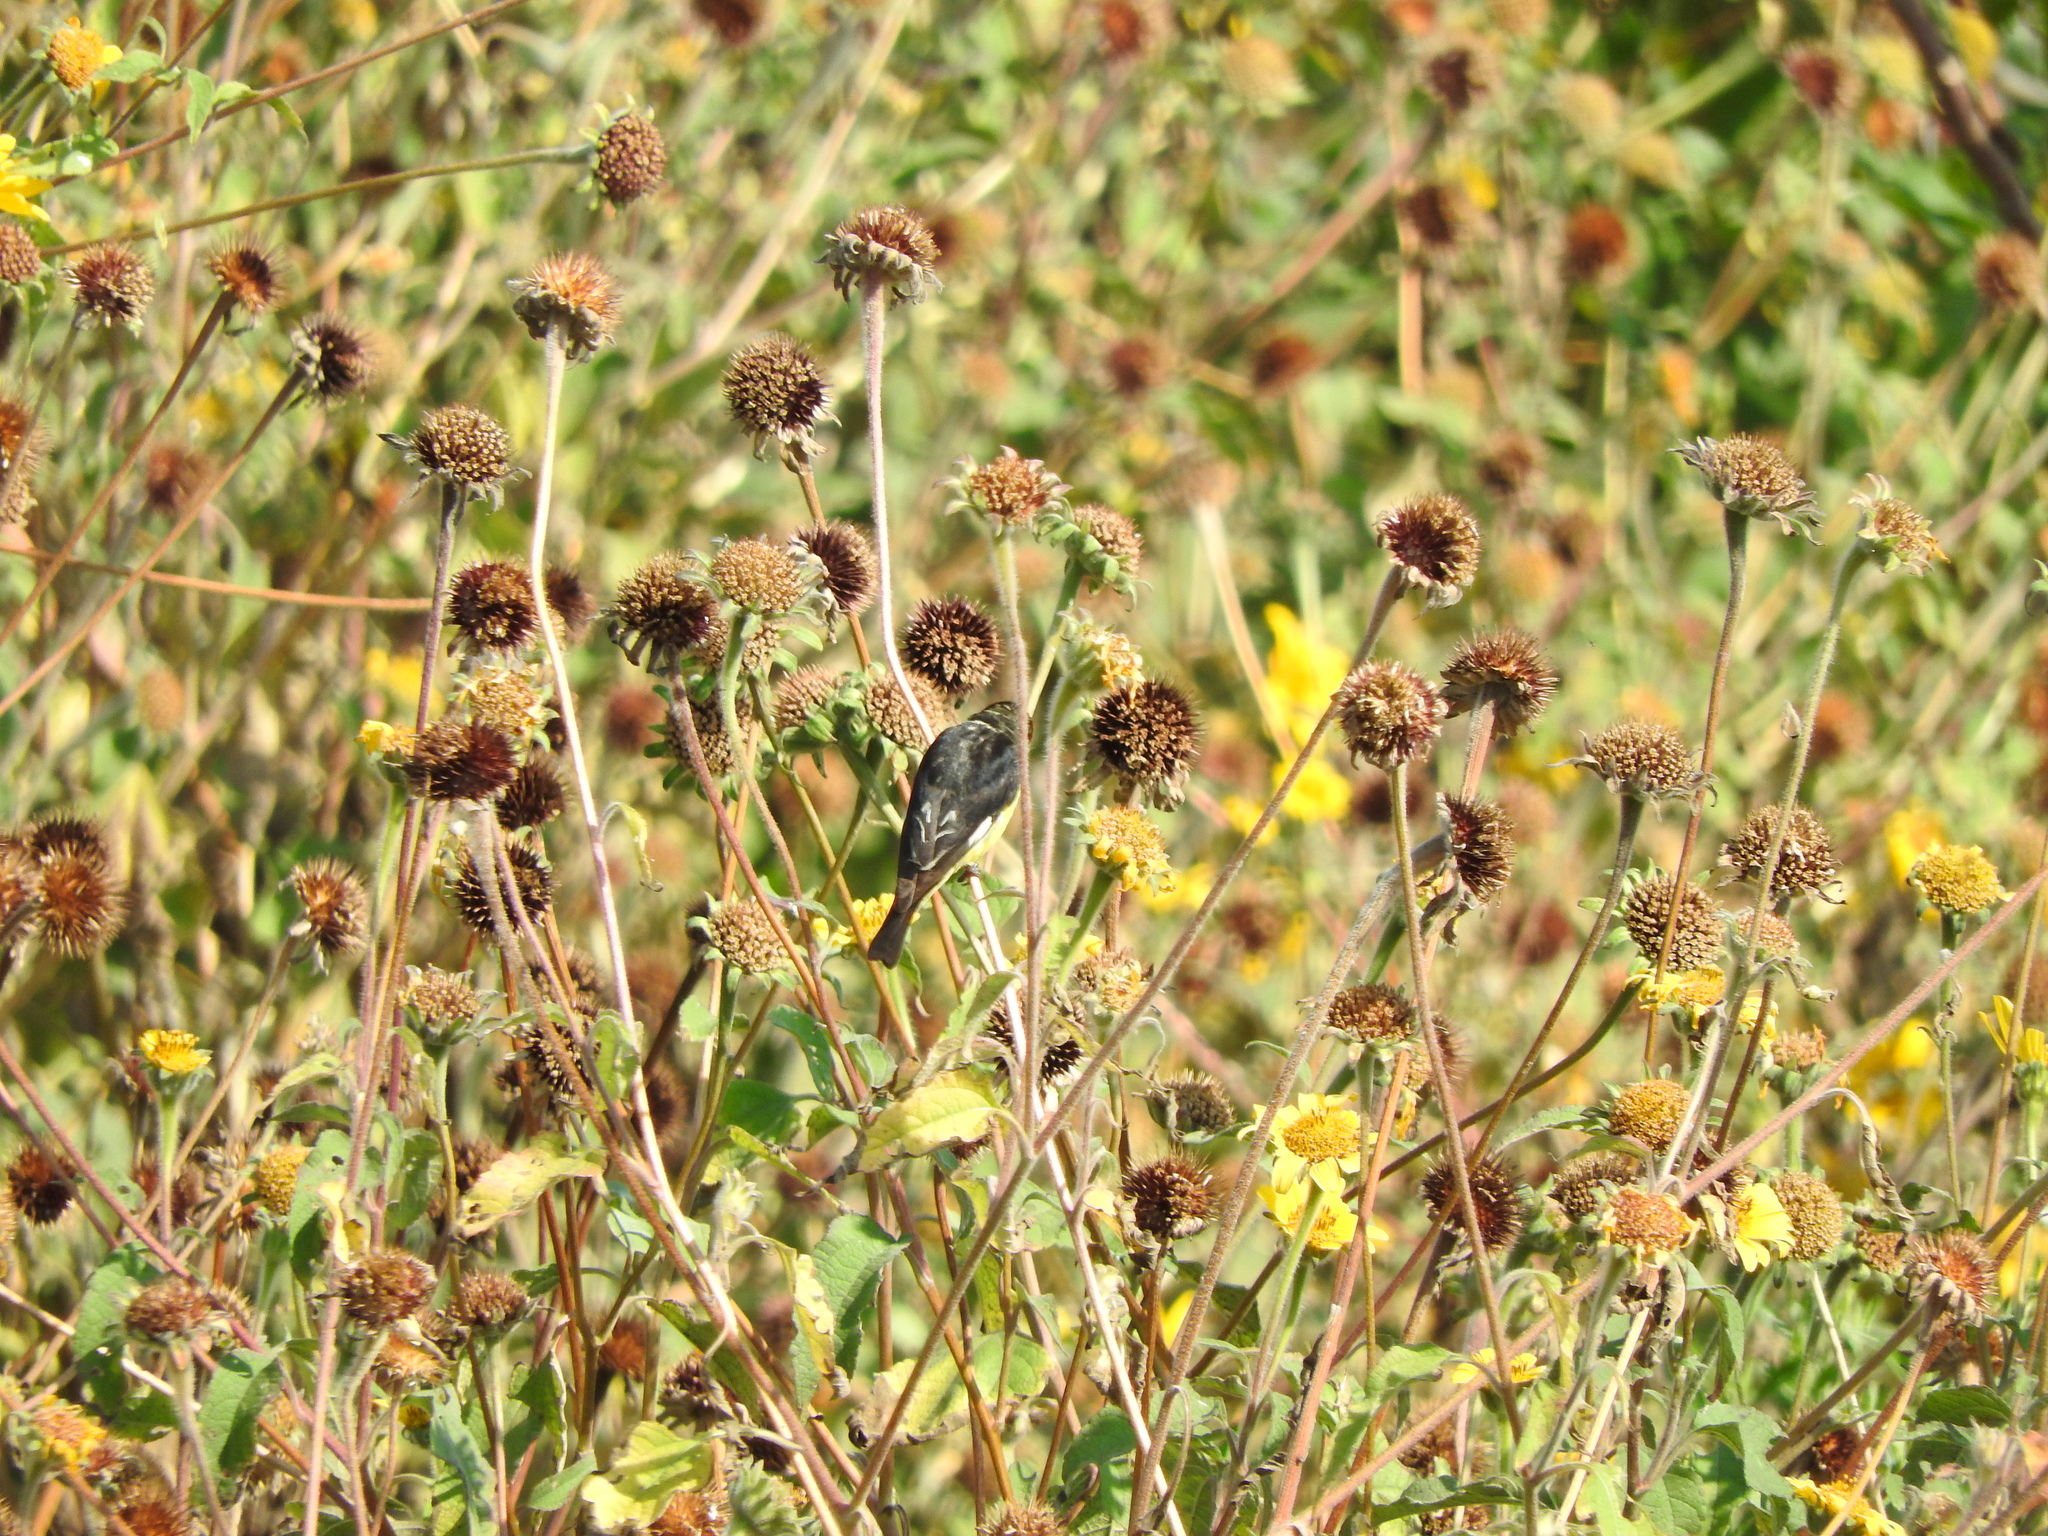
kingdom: Animalia
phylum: Chordata
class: Aves
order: Passeriformes
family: Fringillidae
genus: Spinus
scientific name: Spinus psaltria
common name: Lesser goldfinch
